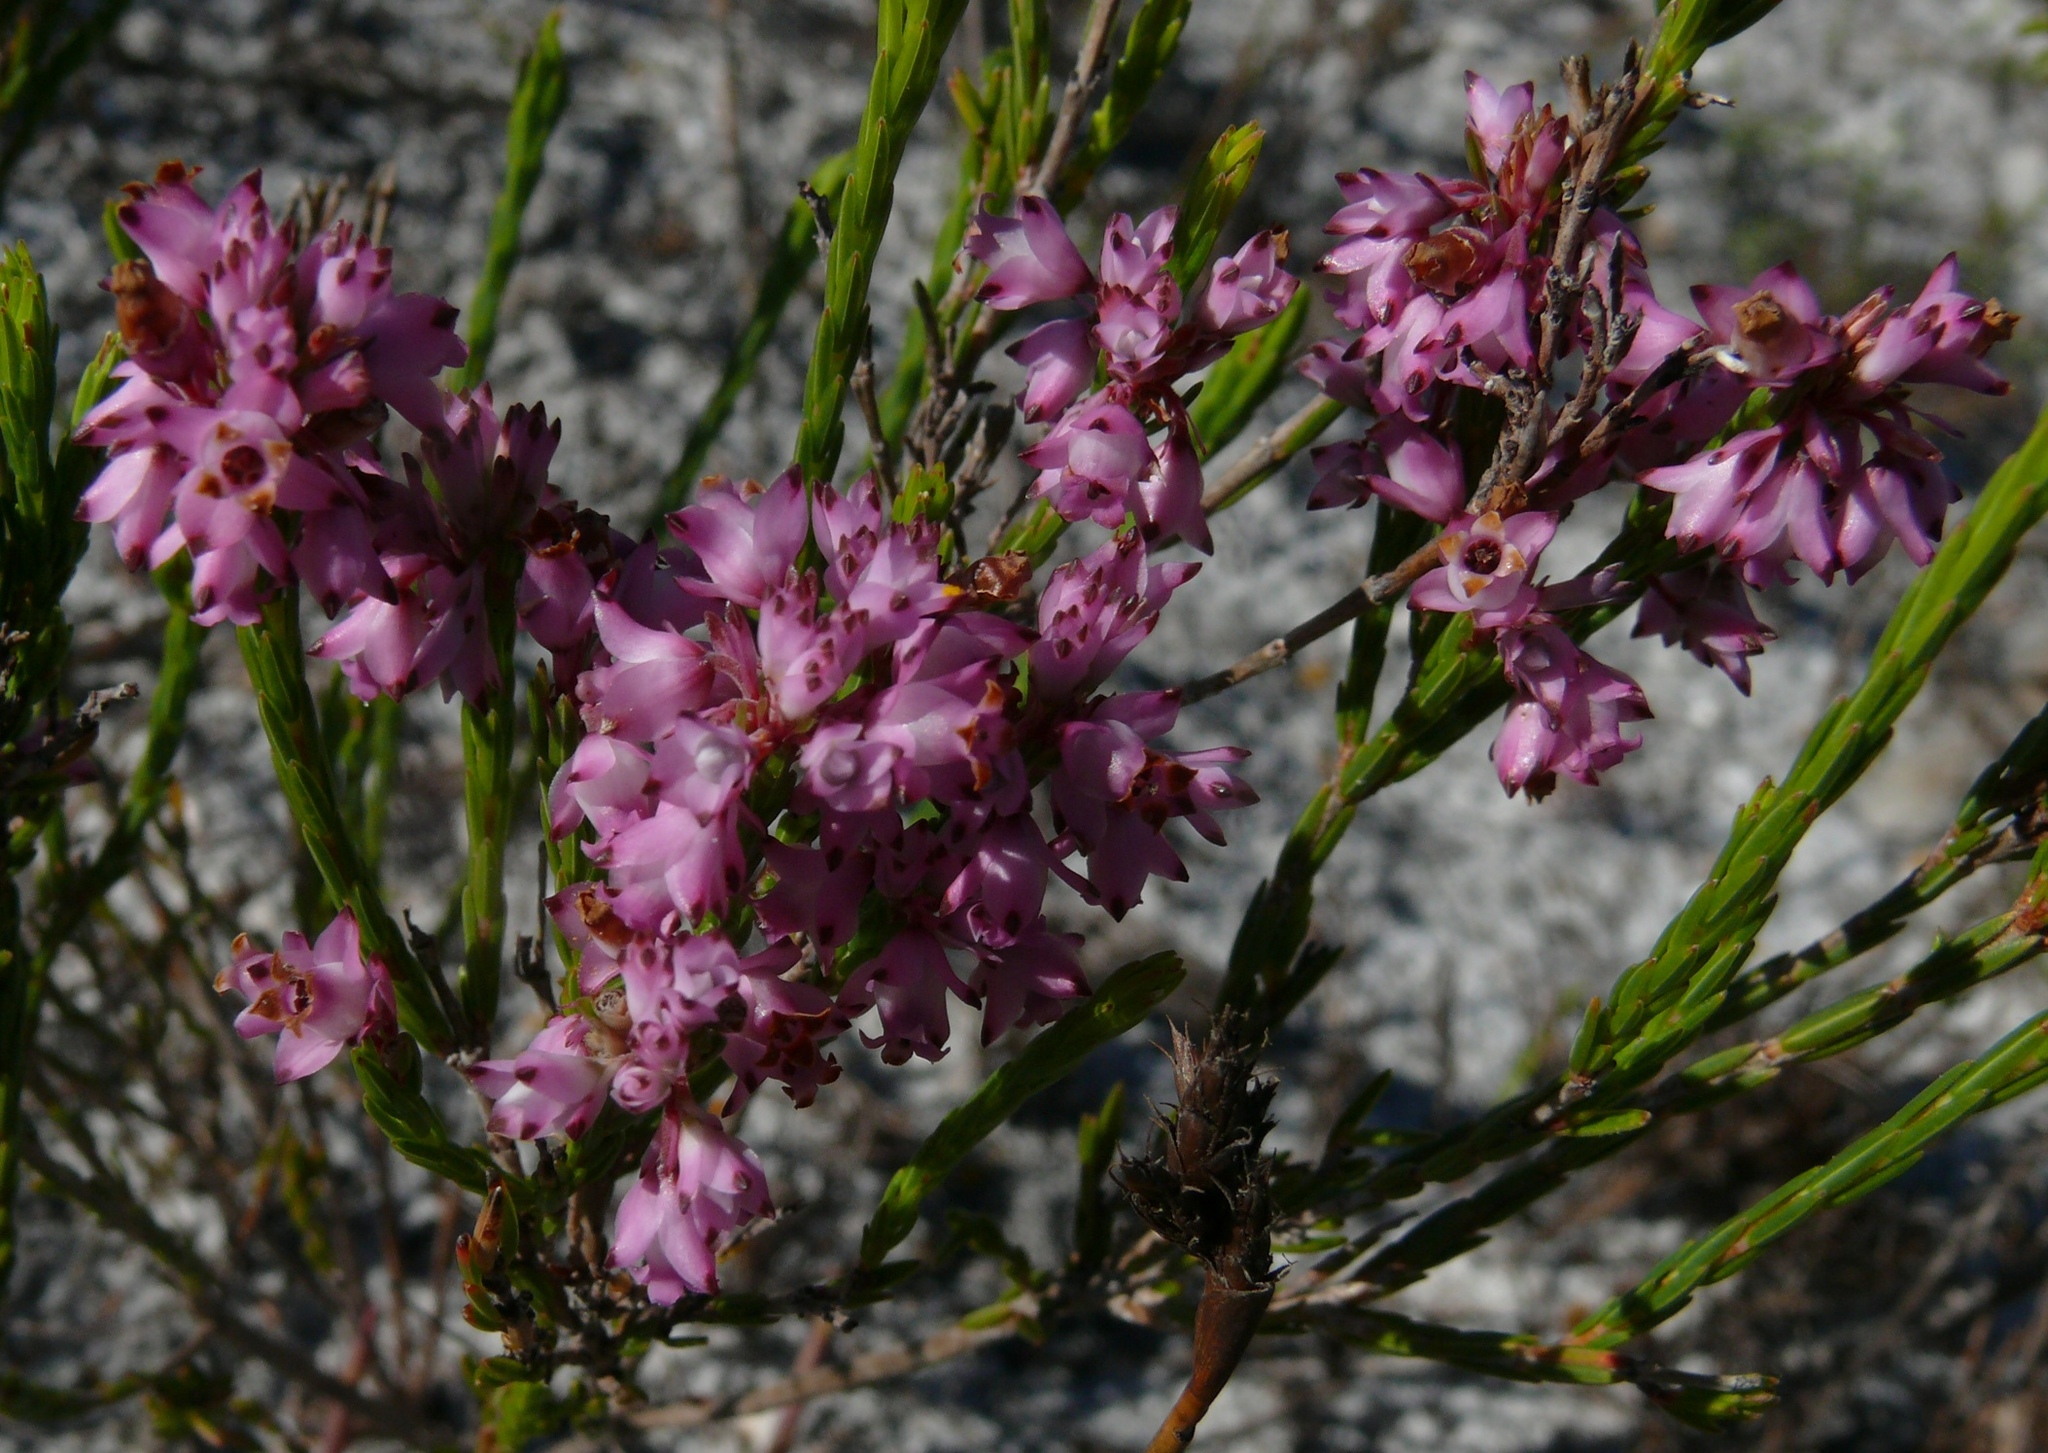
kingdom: Plantae
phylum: Tracheophyta
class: Magnoliopsida
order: Ericales
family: Ericaceae
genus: Erica
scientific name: Erica corifolia
